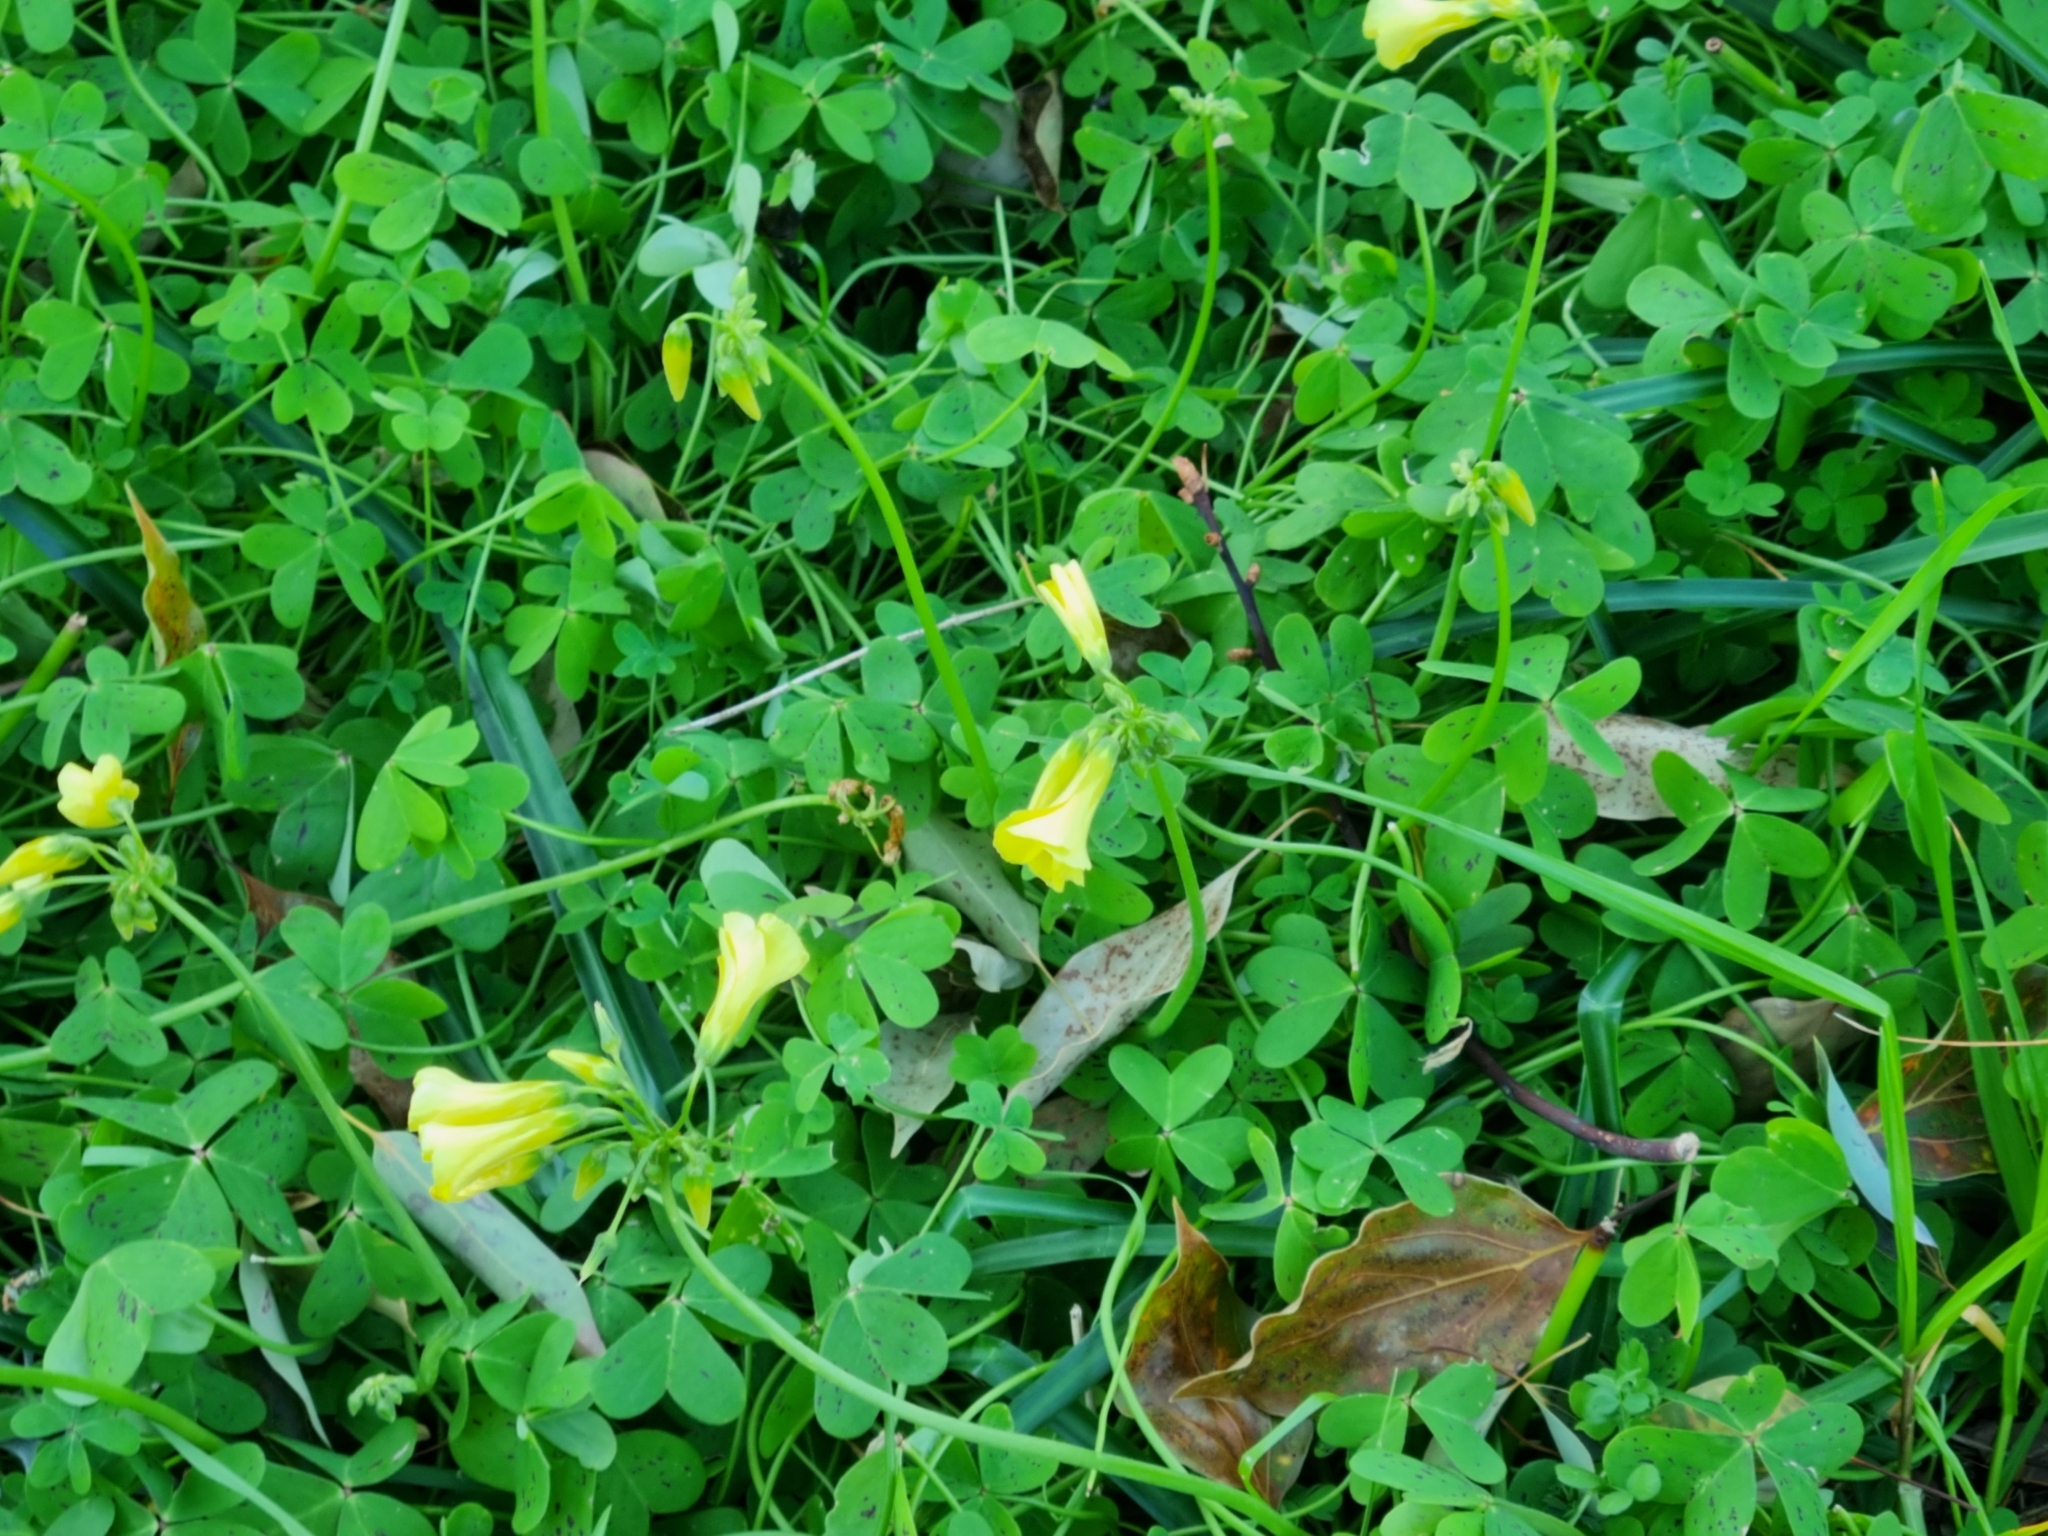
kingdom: Plantae
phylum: Tracheophyta
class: Magnoliopsida
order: Oxalidales
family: Oxalidaceae
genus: Oxalis
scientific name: Oxalis pes-caprae
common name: Bermuda-buttercup
